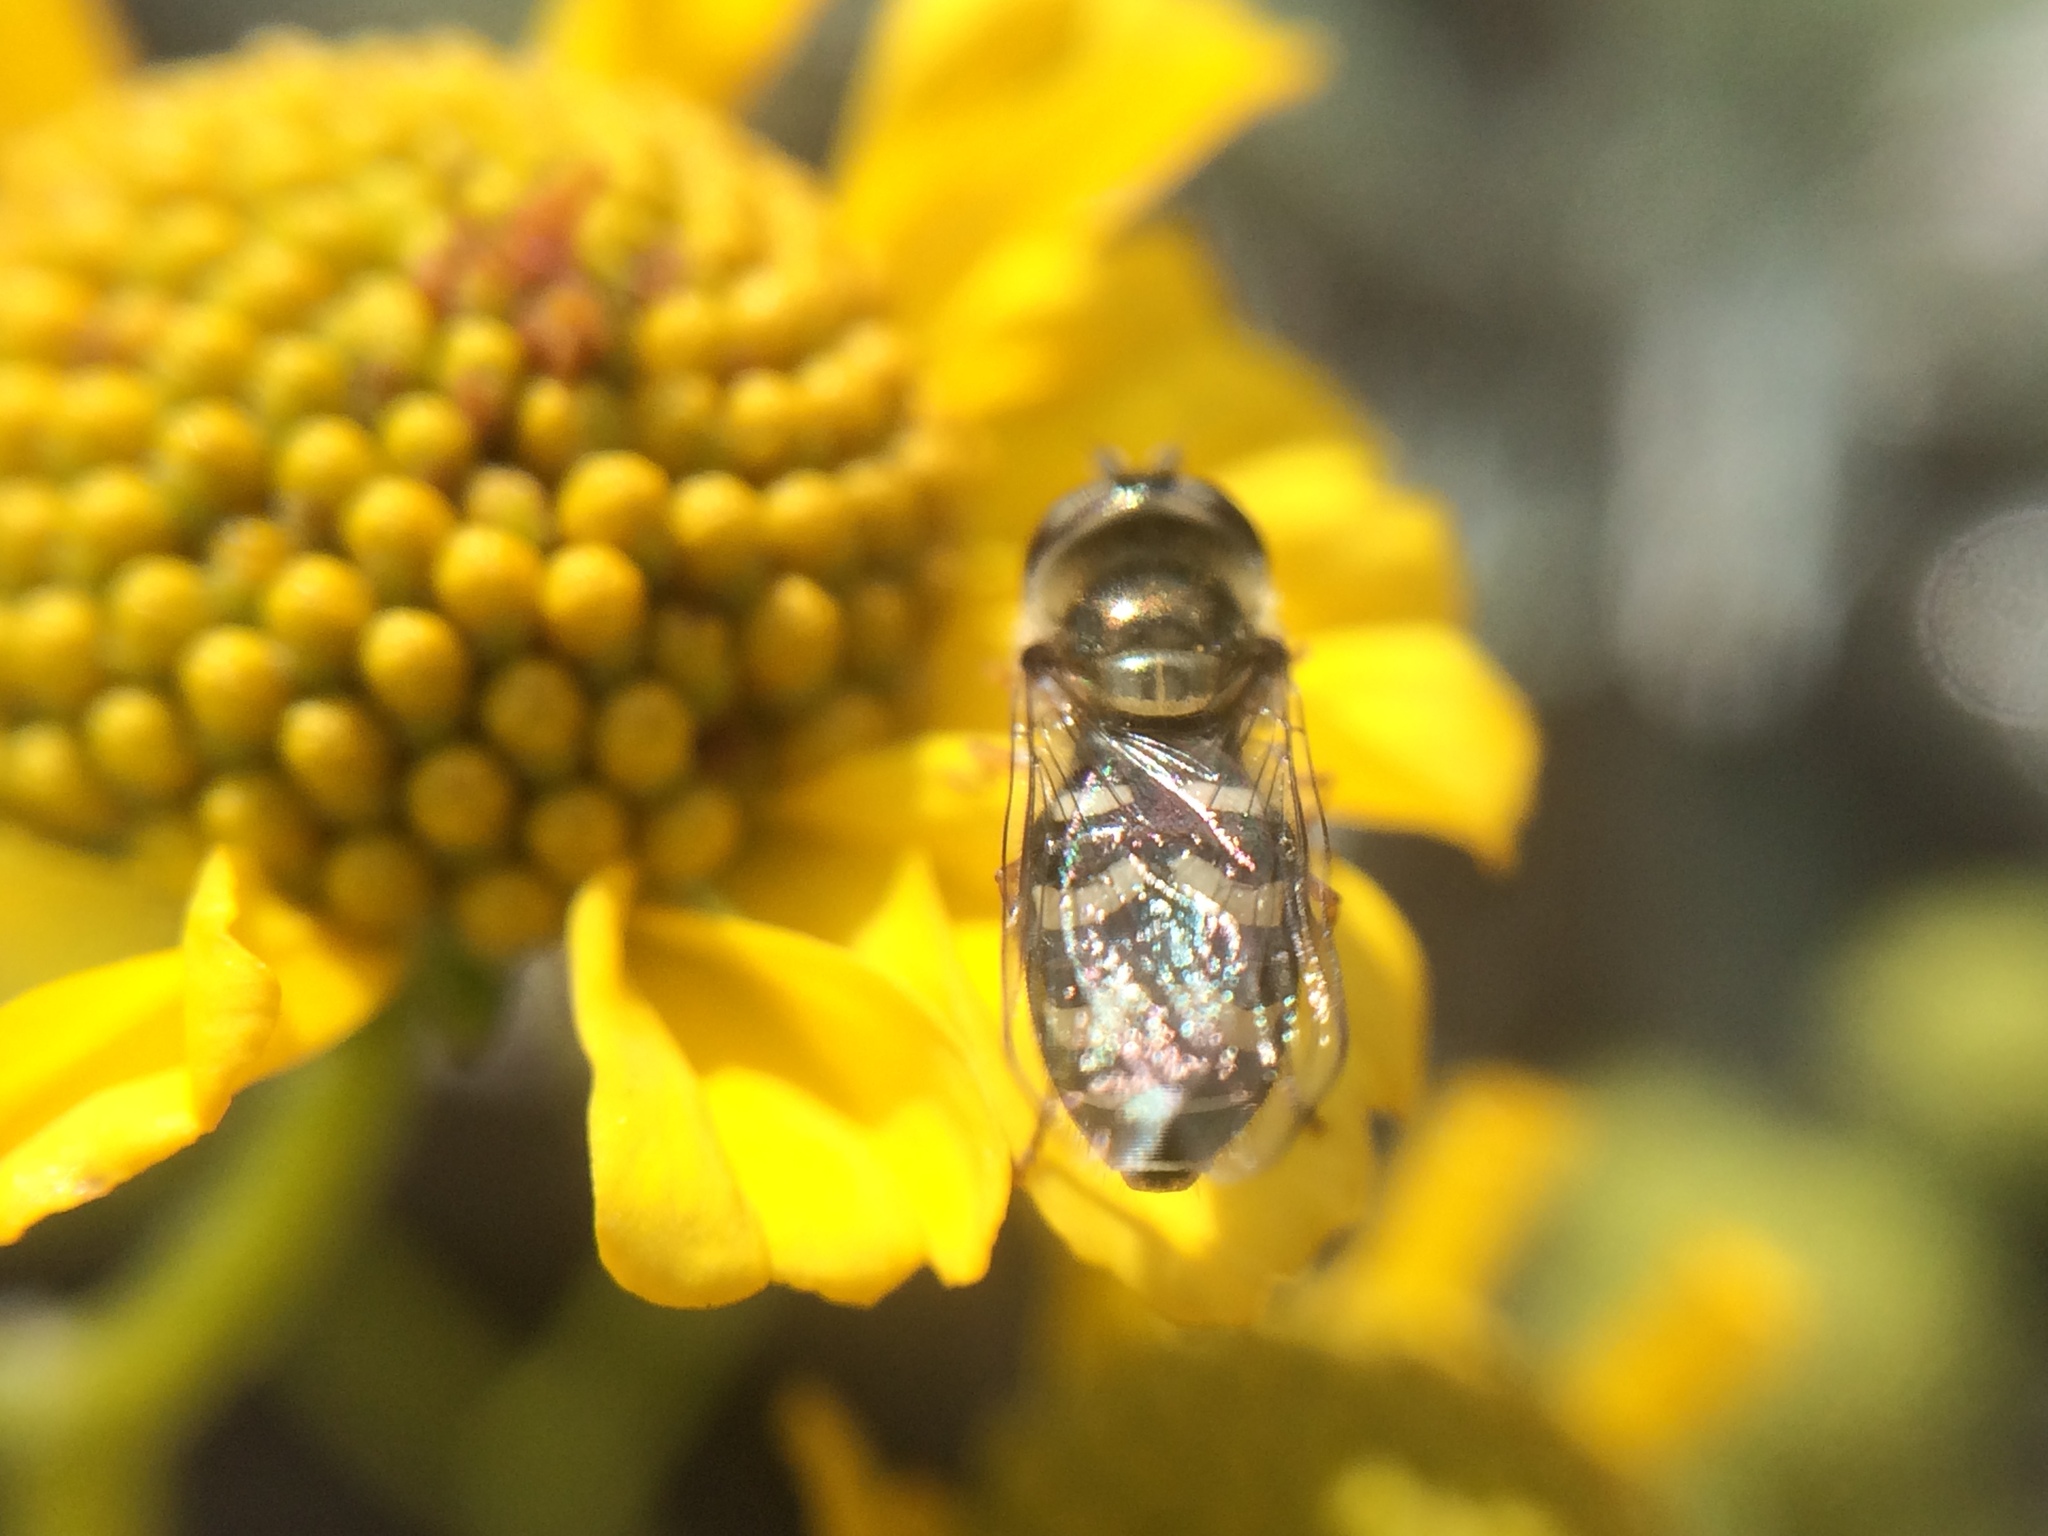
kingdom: Animalia
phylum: Arthropoda
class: Insecta
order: Diptera
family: Syrphidae
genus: Eupeodes
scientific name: Eupeodes volucris
